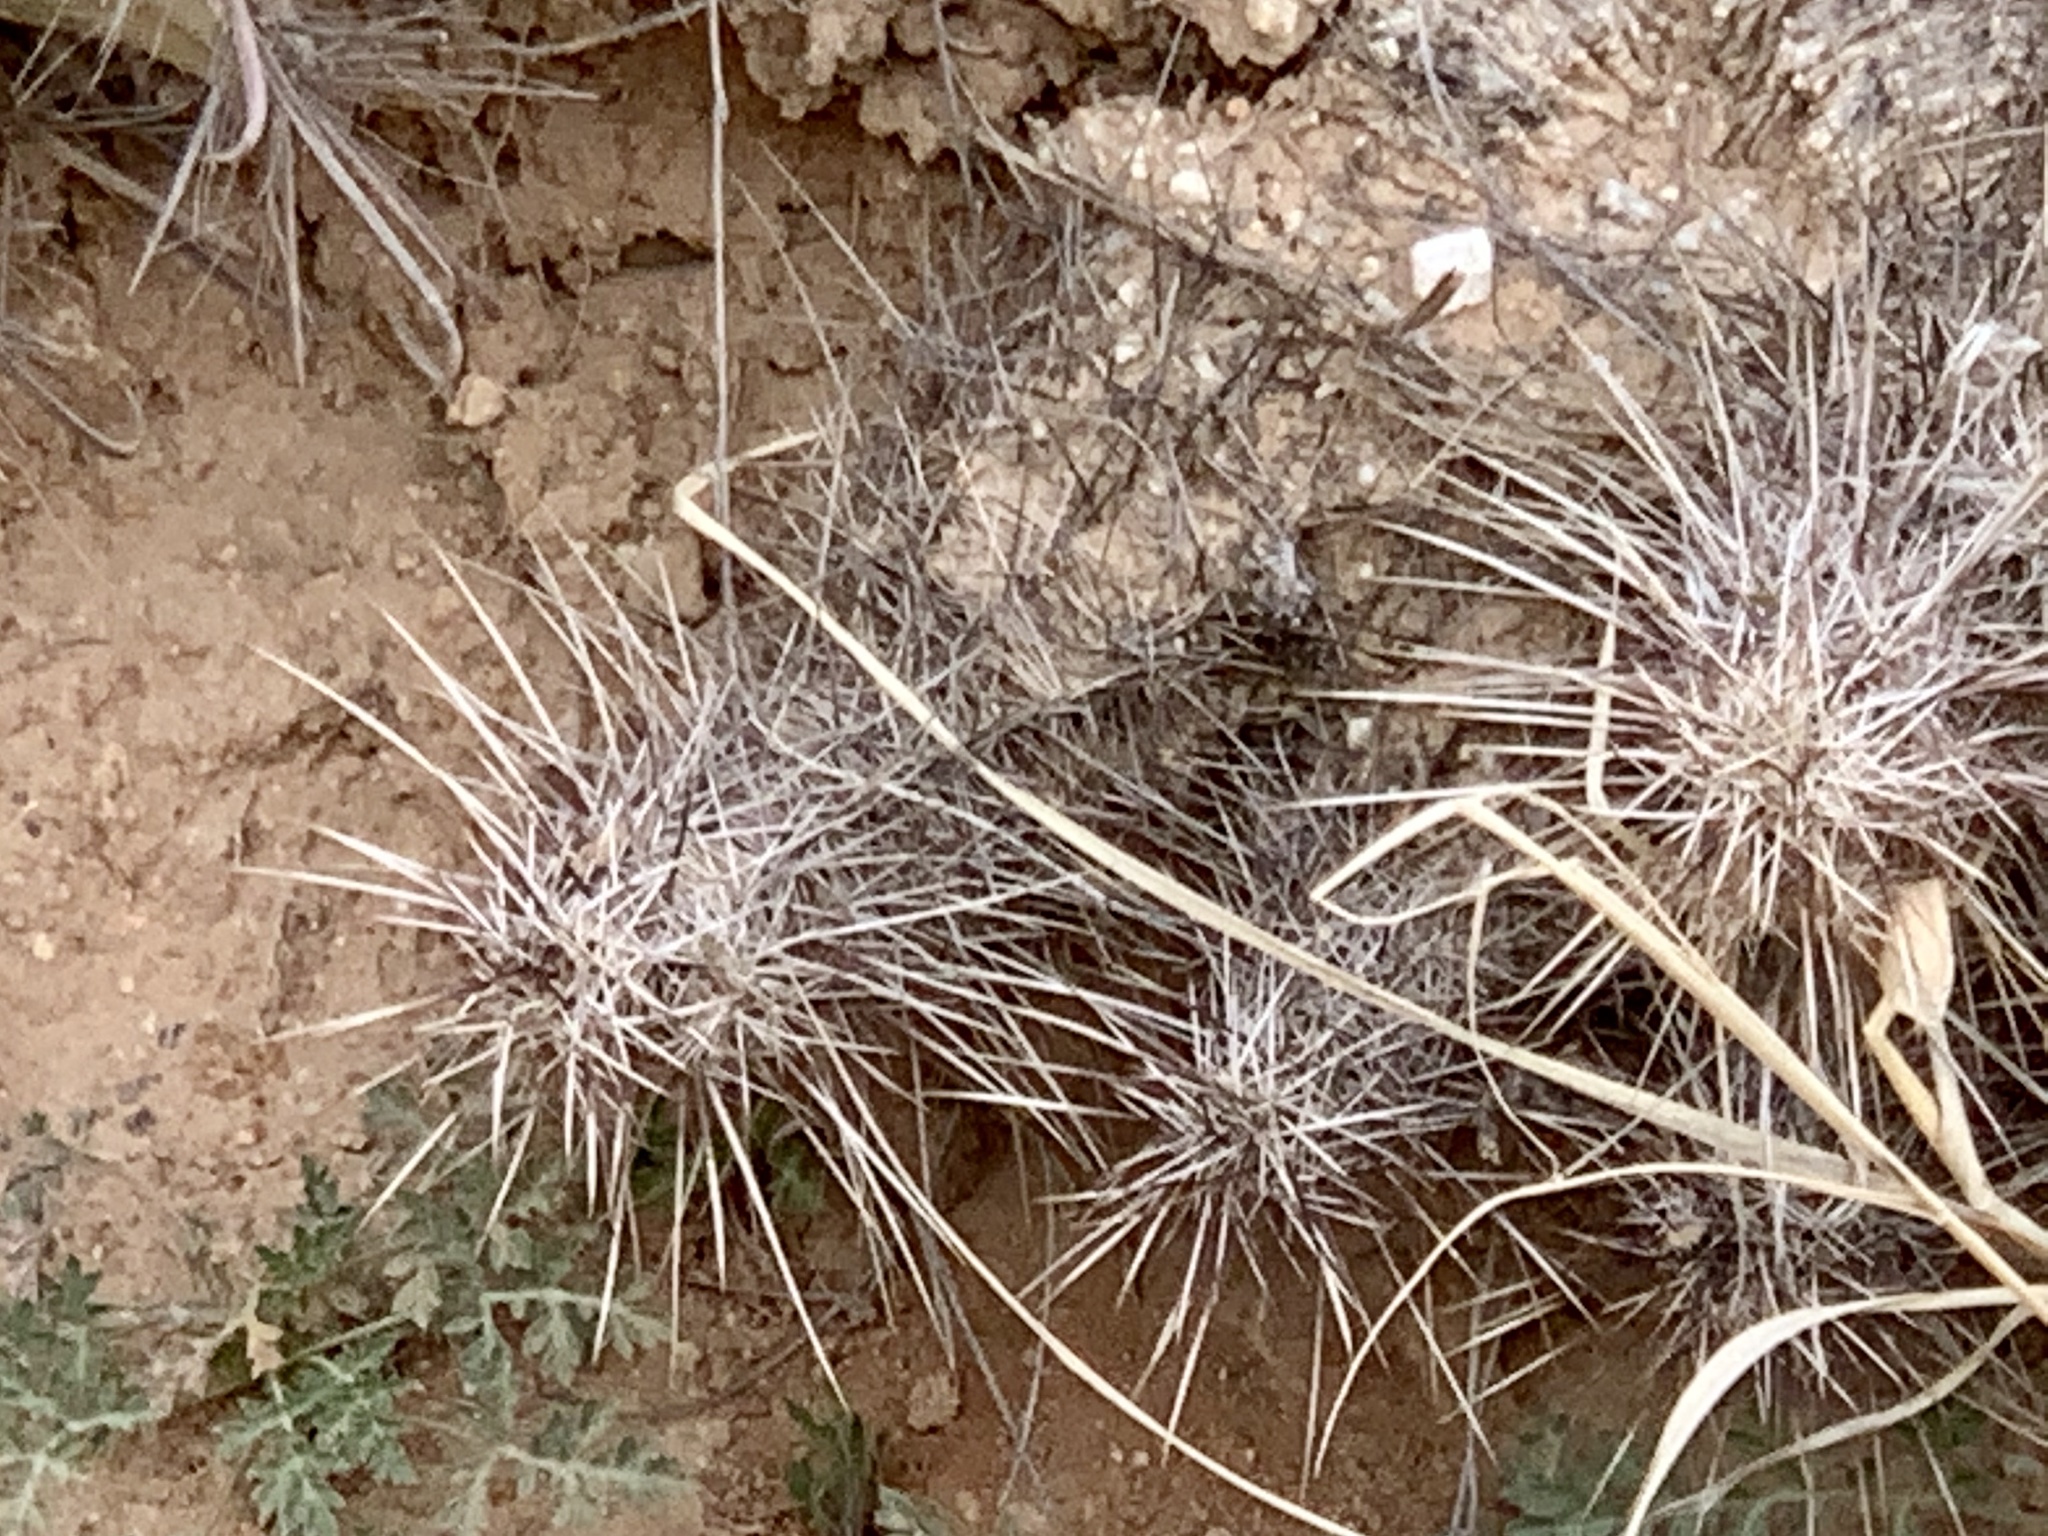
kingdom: Plantae
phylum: Tracheophyta
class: Magnoliopsida
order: Caryophyllales
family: Cactaceae
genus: Echinocereus
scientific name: Echinocereus fasciculatus
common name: Bundle hedgehog
